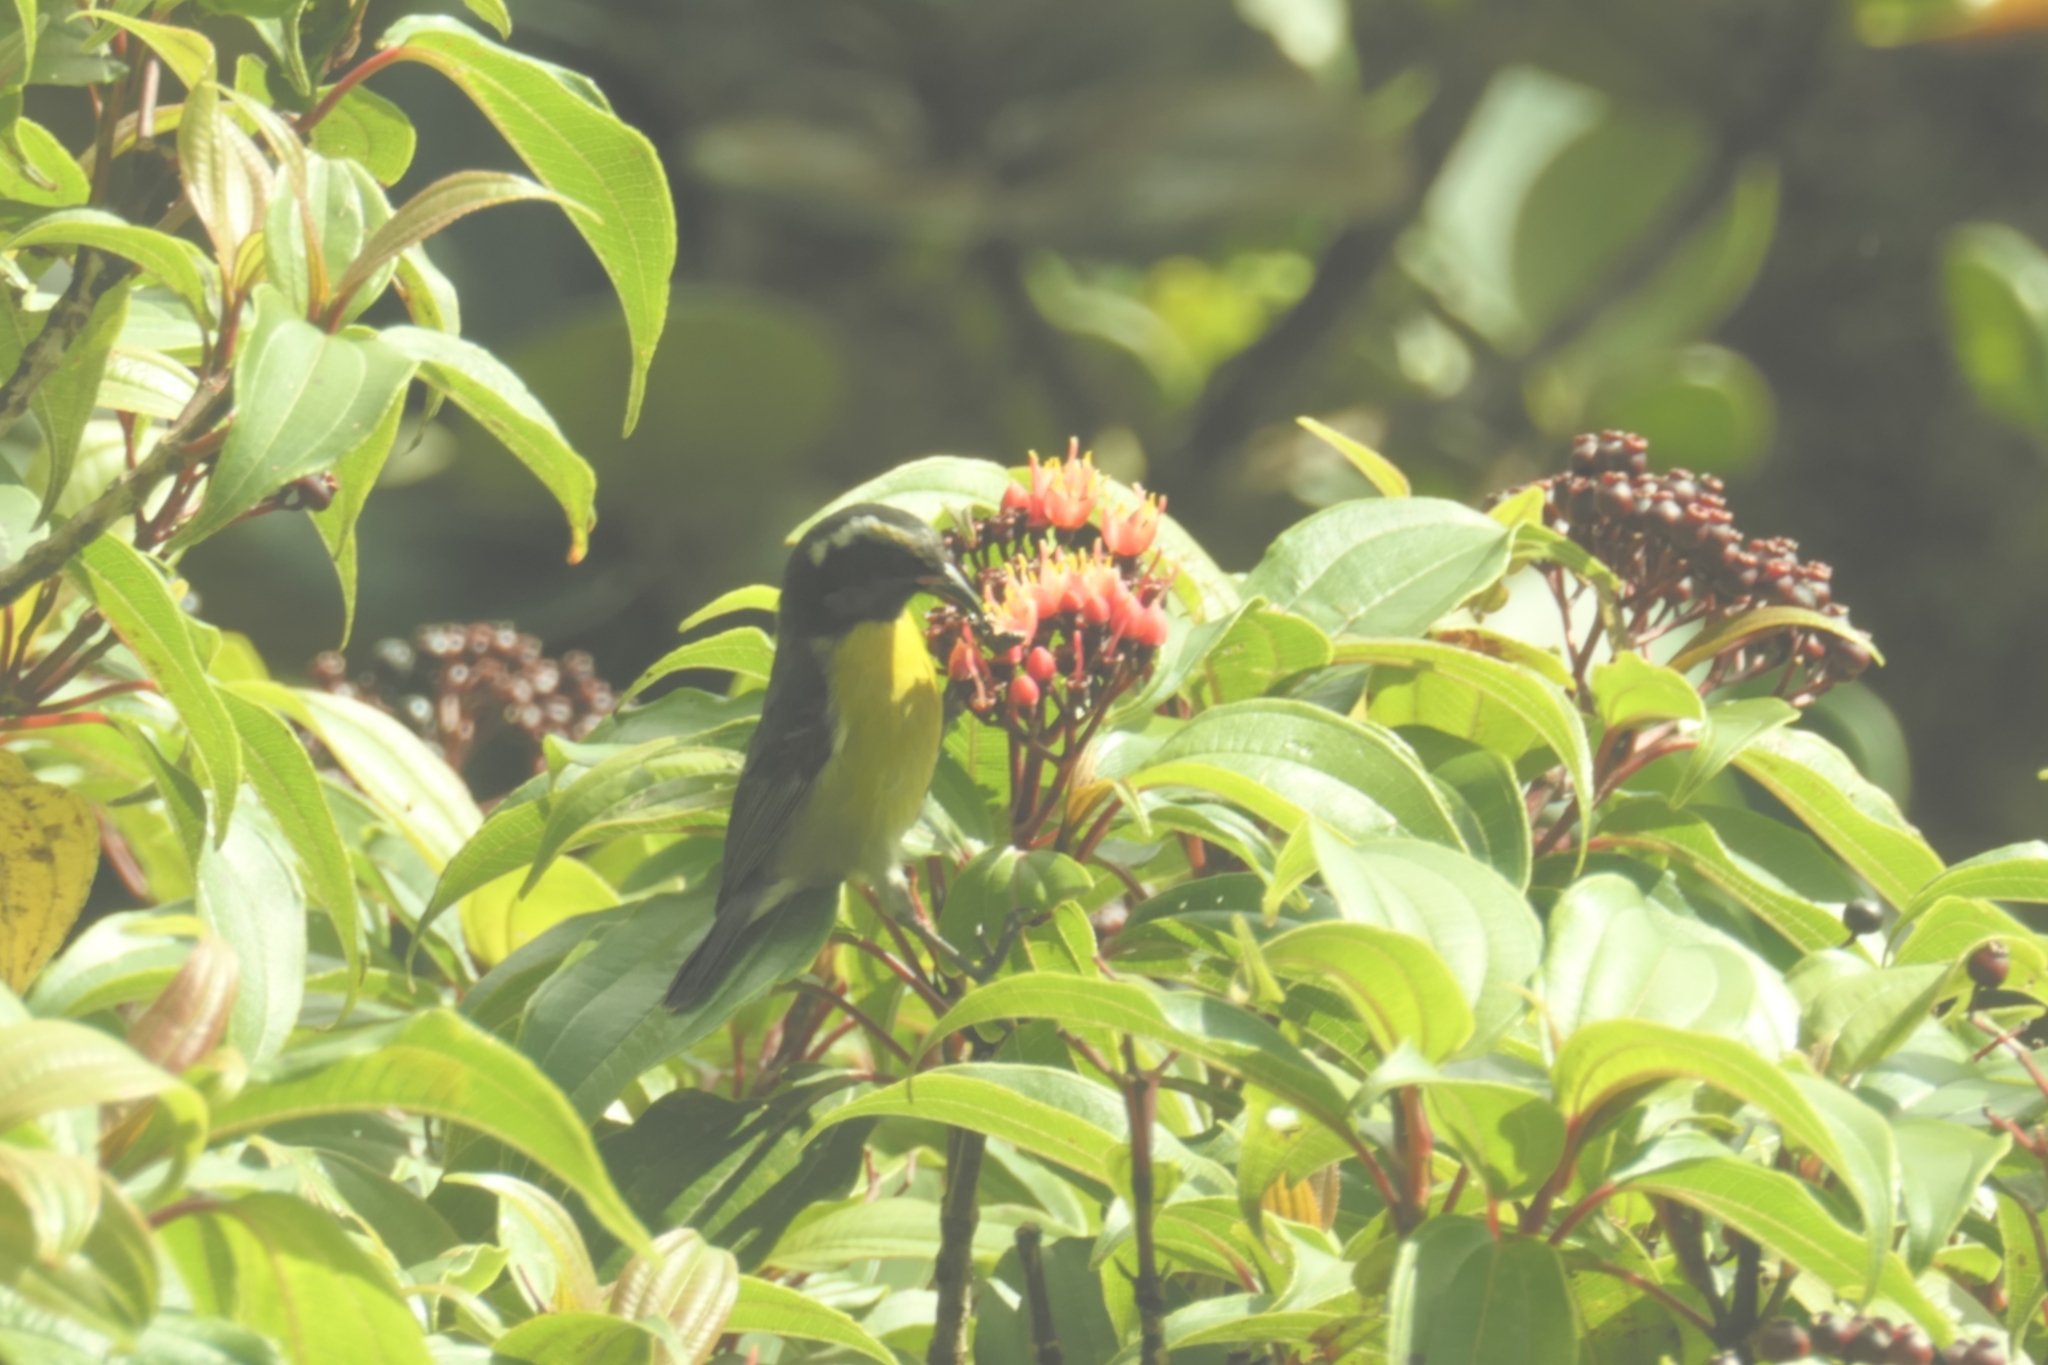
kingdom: Animalia
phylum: Chordata
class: Aves
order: Passeriformes
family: Thraupidae
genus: Coereba
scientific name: Coereba flaveola
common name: Bananaquit
